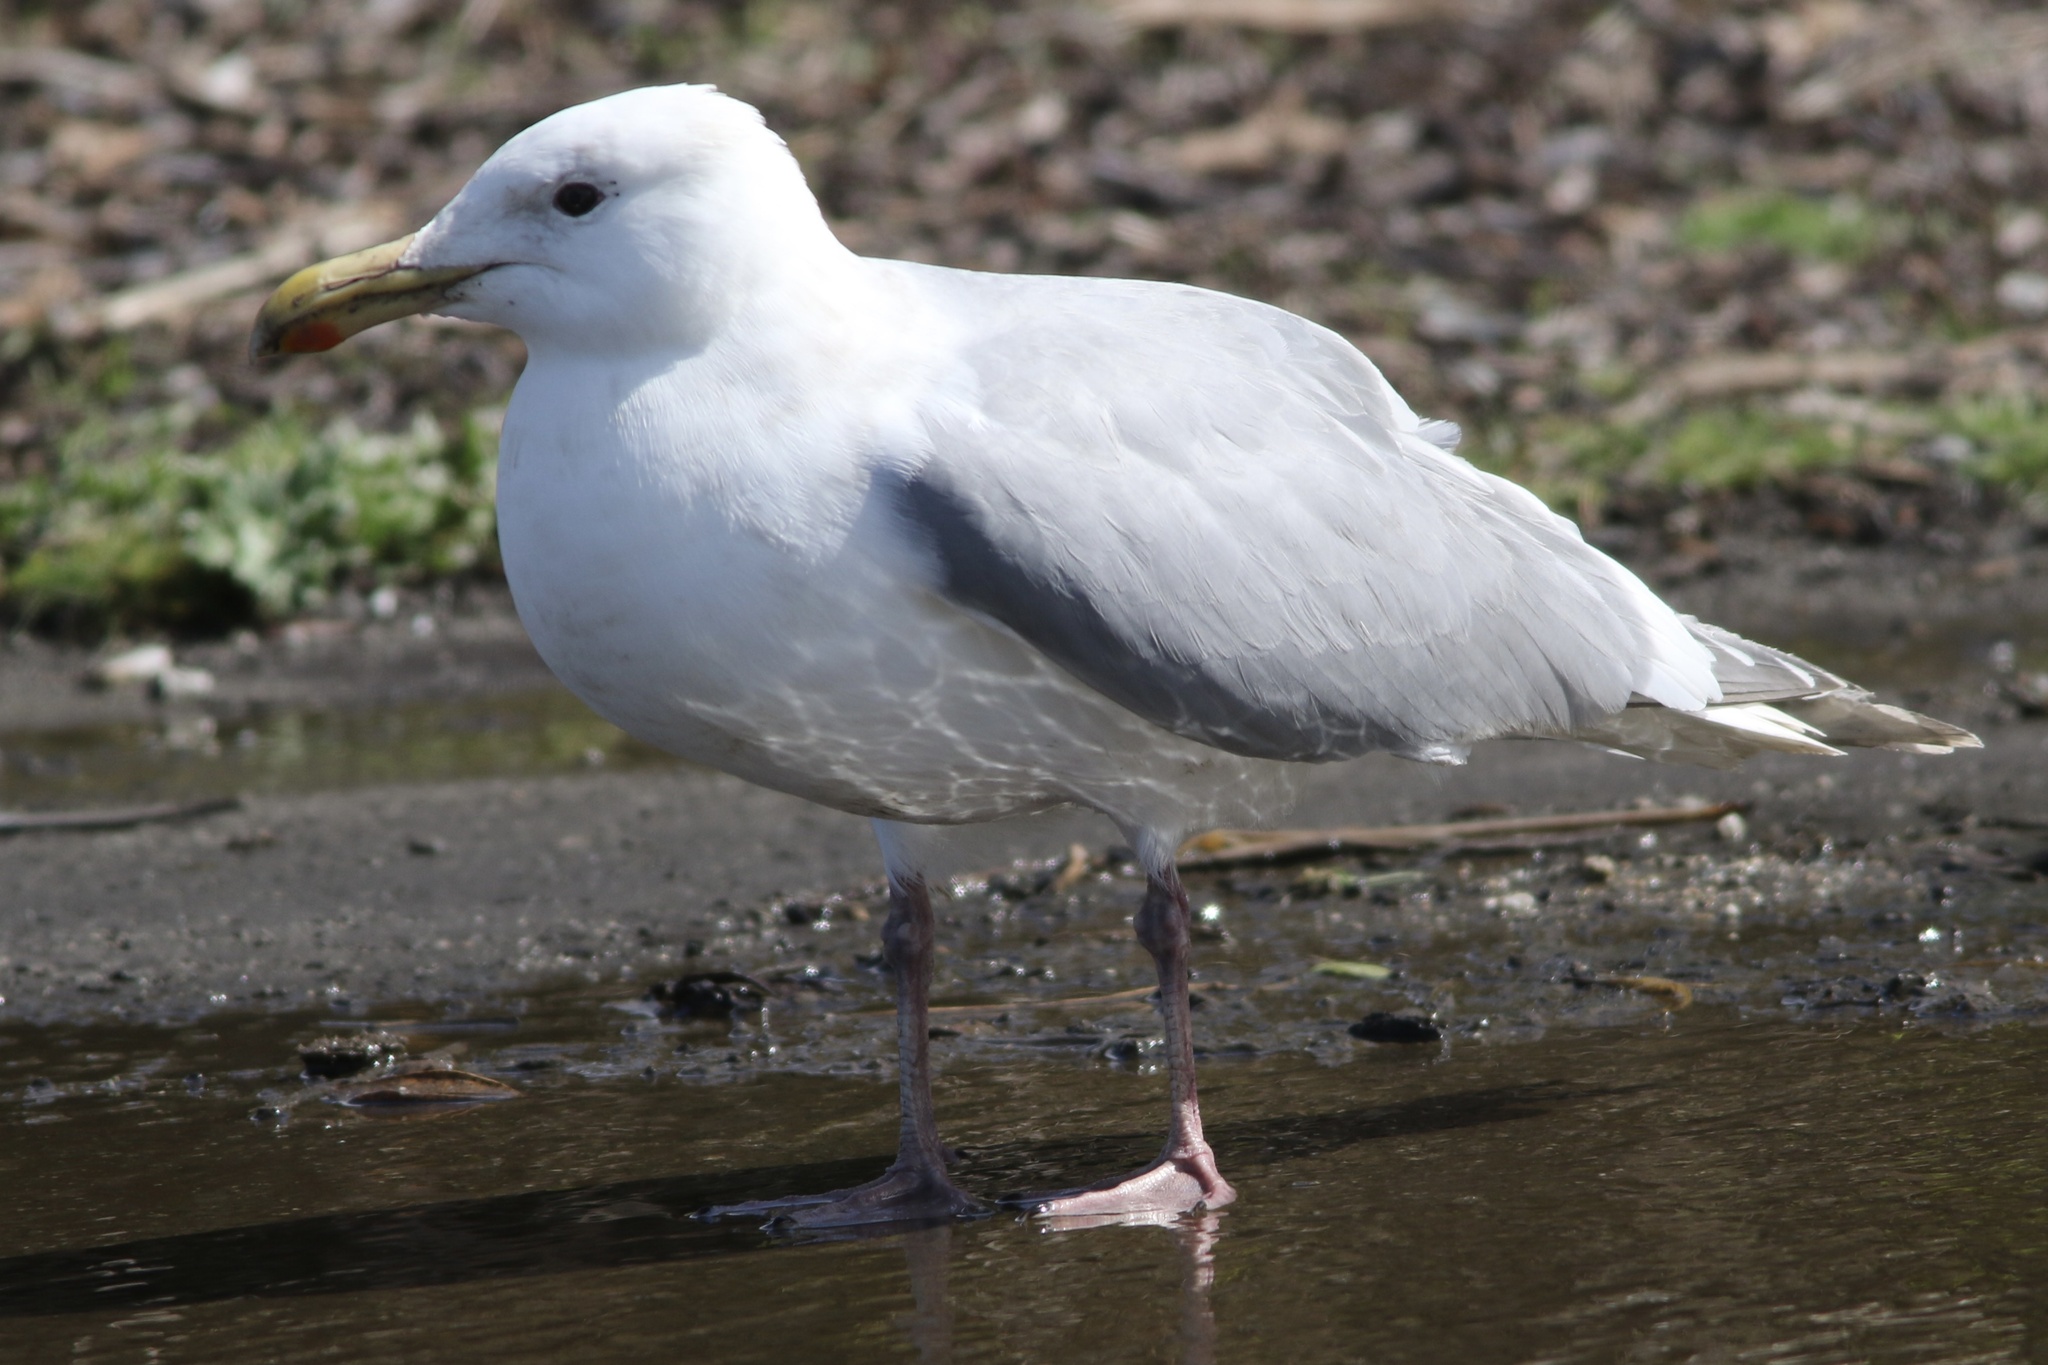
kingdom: Animalia
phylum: Chordata
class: Aves
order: Charadriiformes
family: Laridae
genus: Larus
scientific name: Larus glaucescens
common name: Glaucous-winged gull
